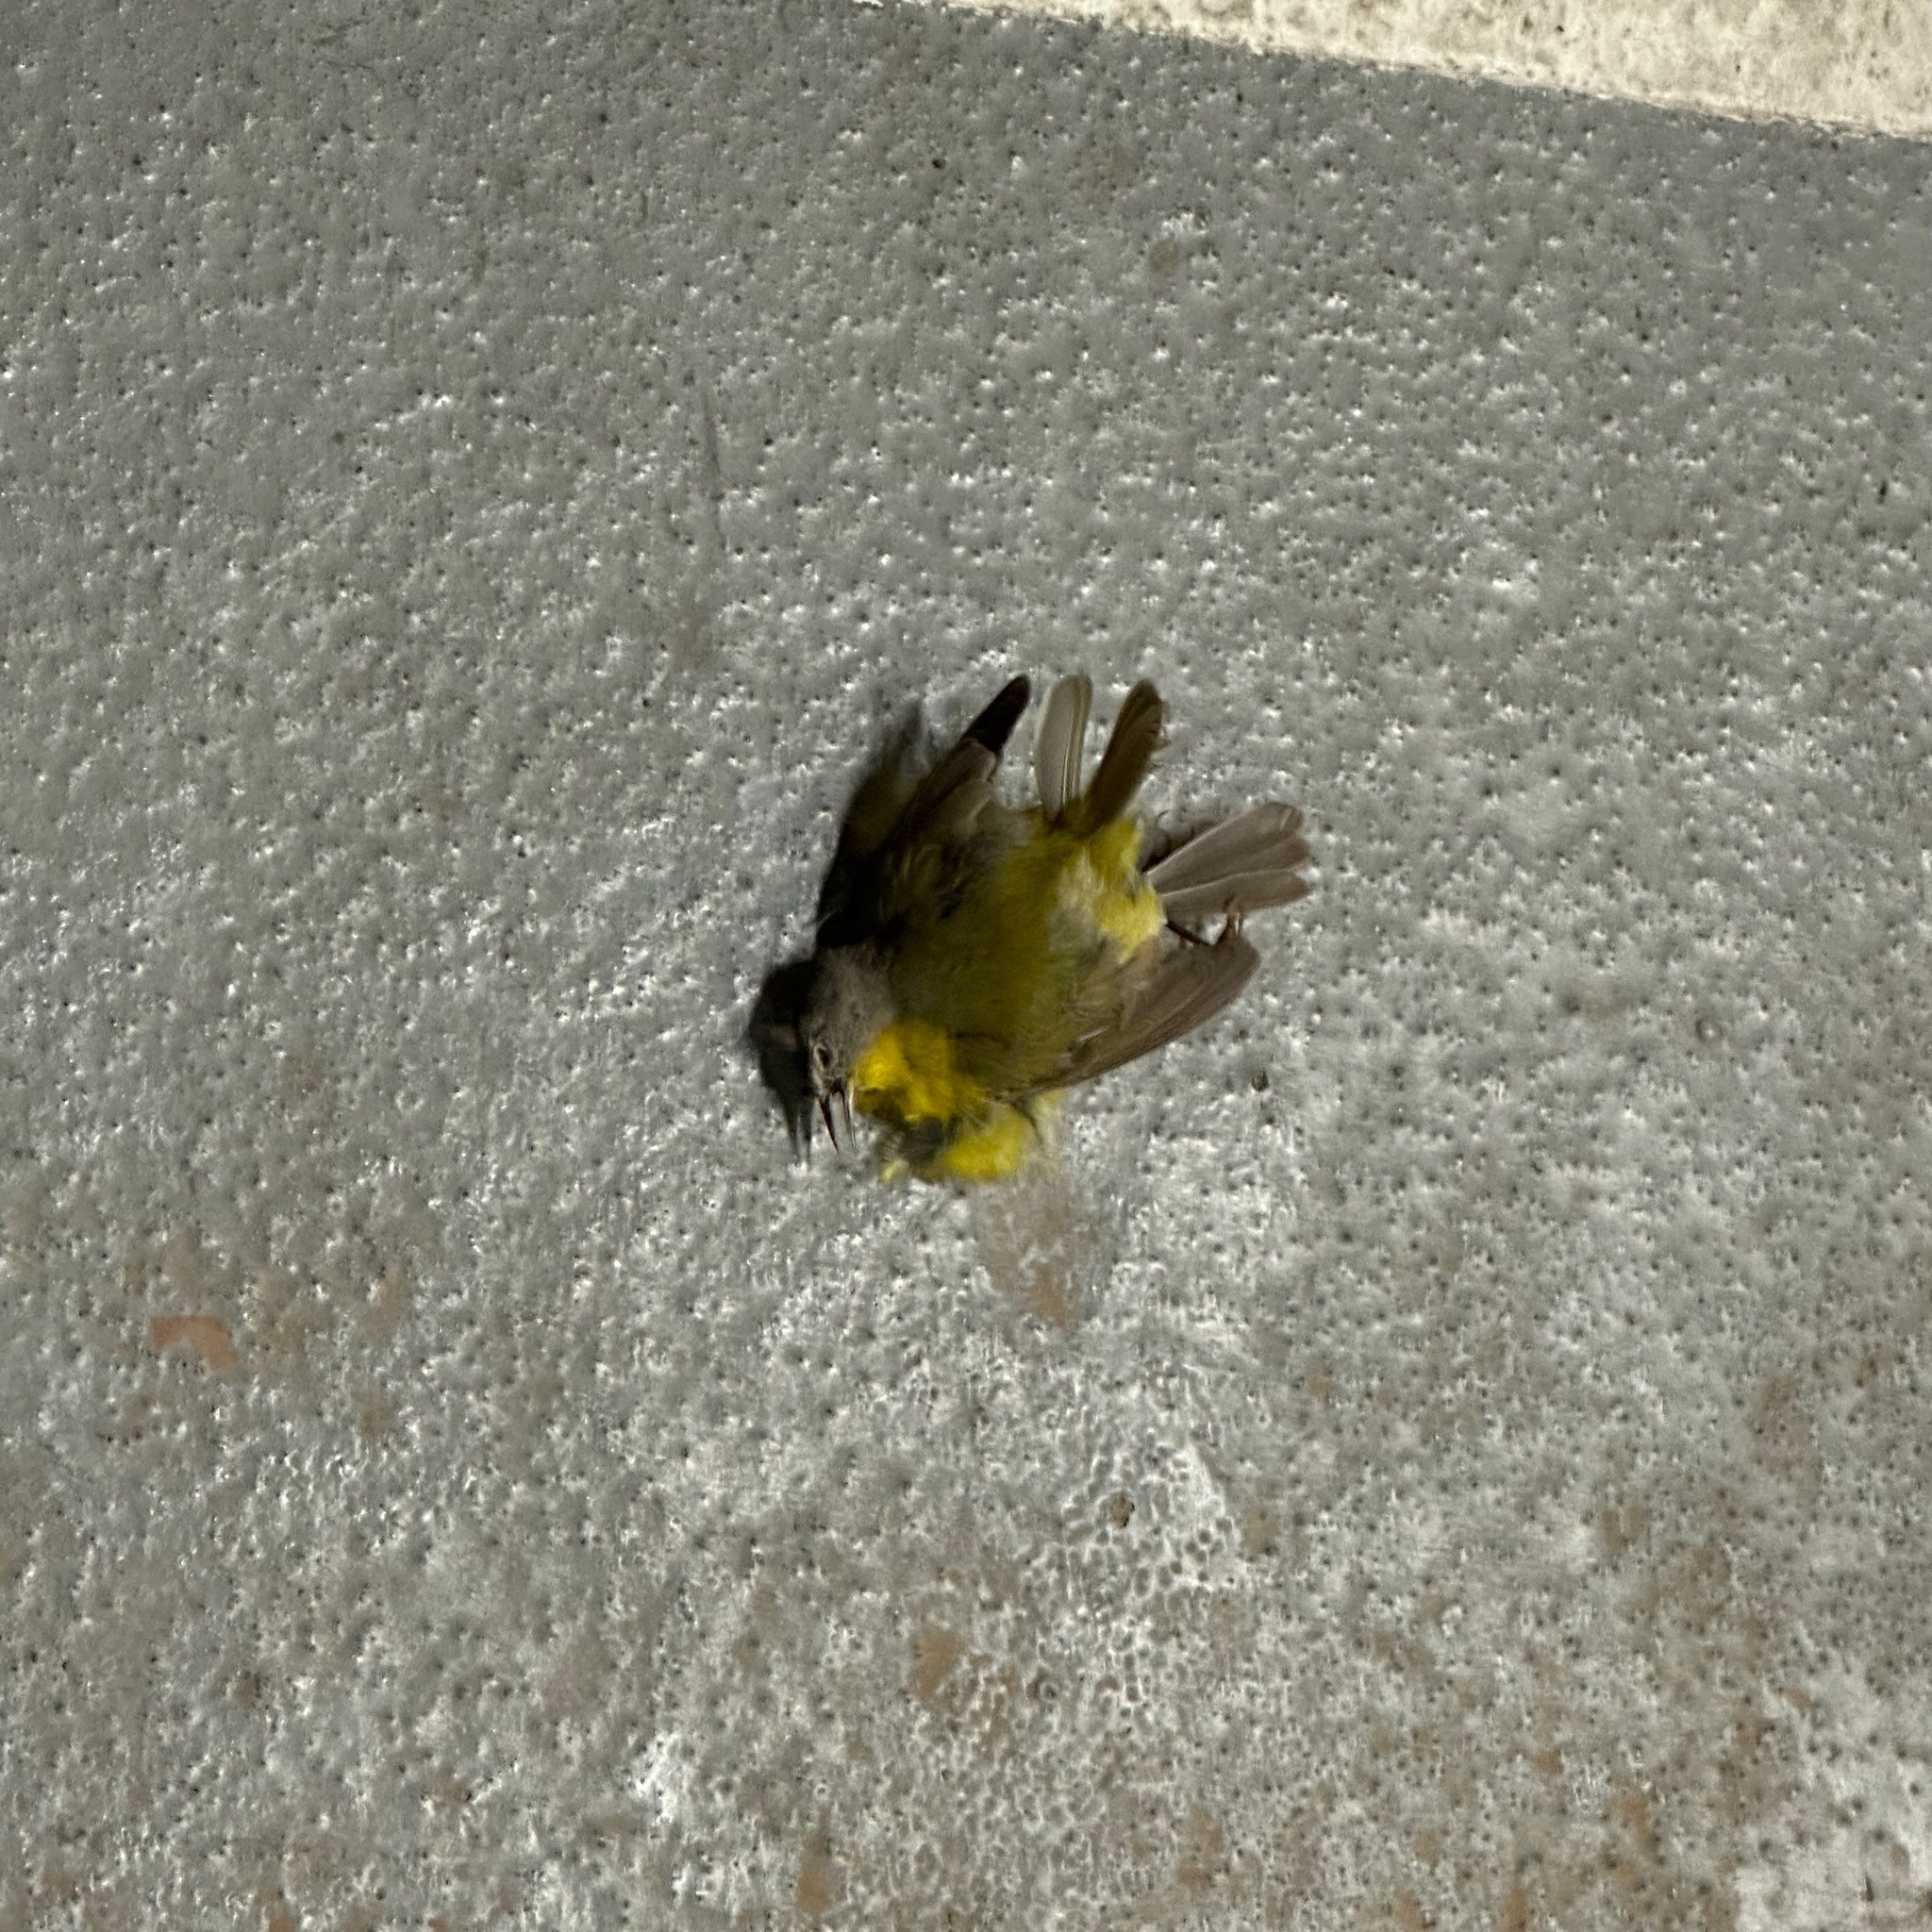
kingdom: Animalia
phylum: Chordata
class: Aves
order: Passeriformes
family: Parulidae
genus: Leiothlypis
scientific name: Leiothlypis ruficapilla
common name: Nashville warbler
